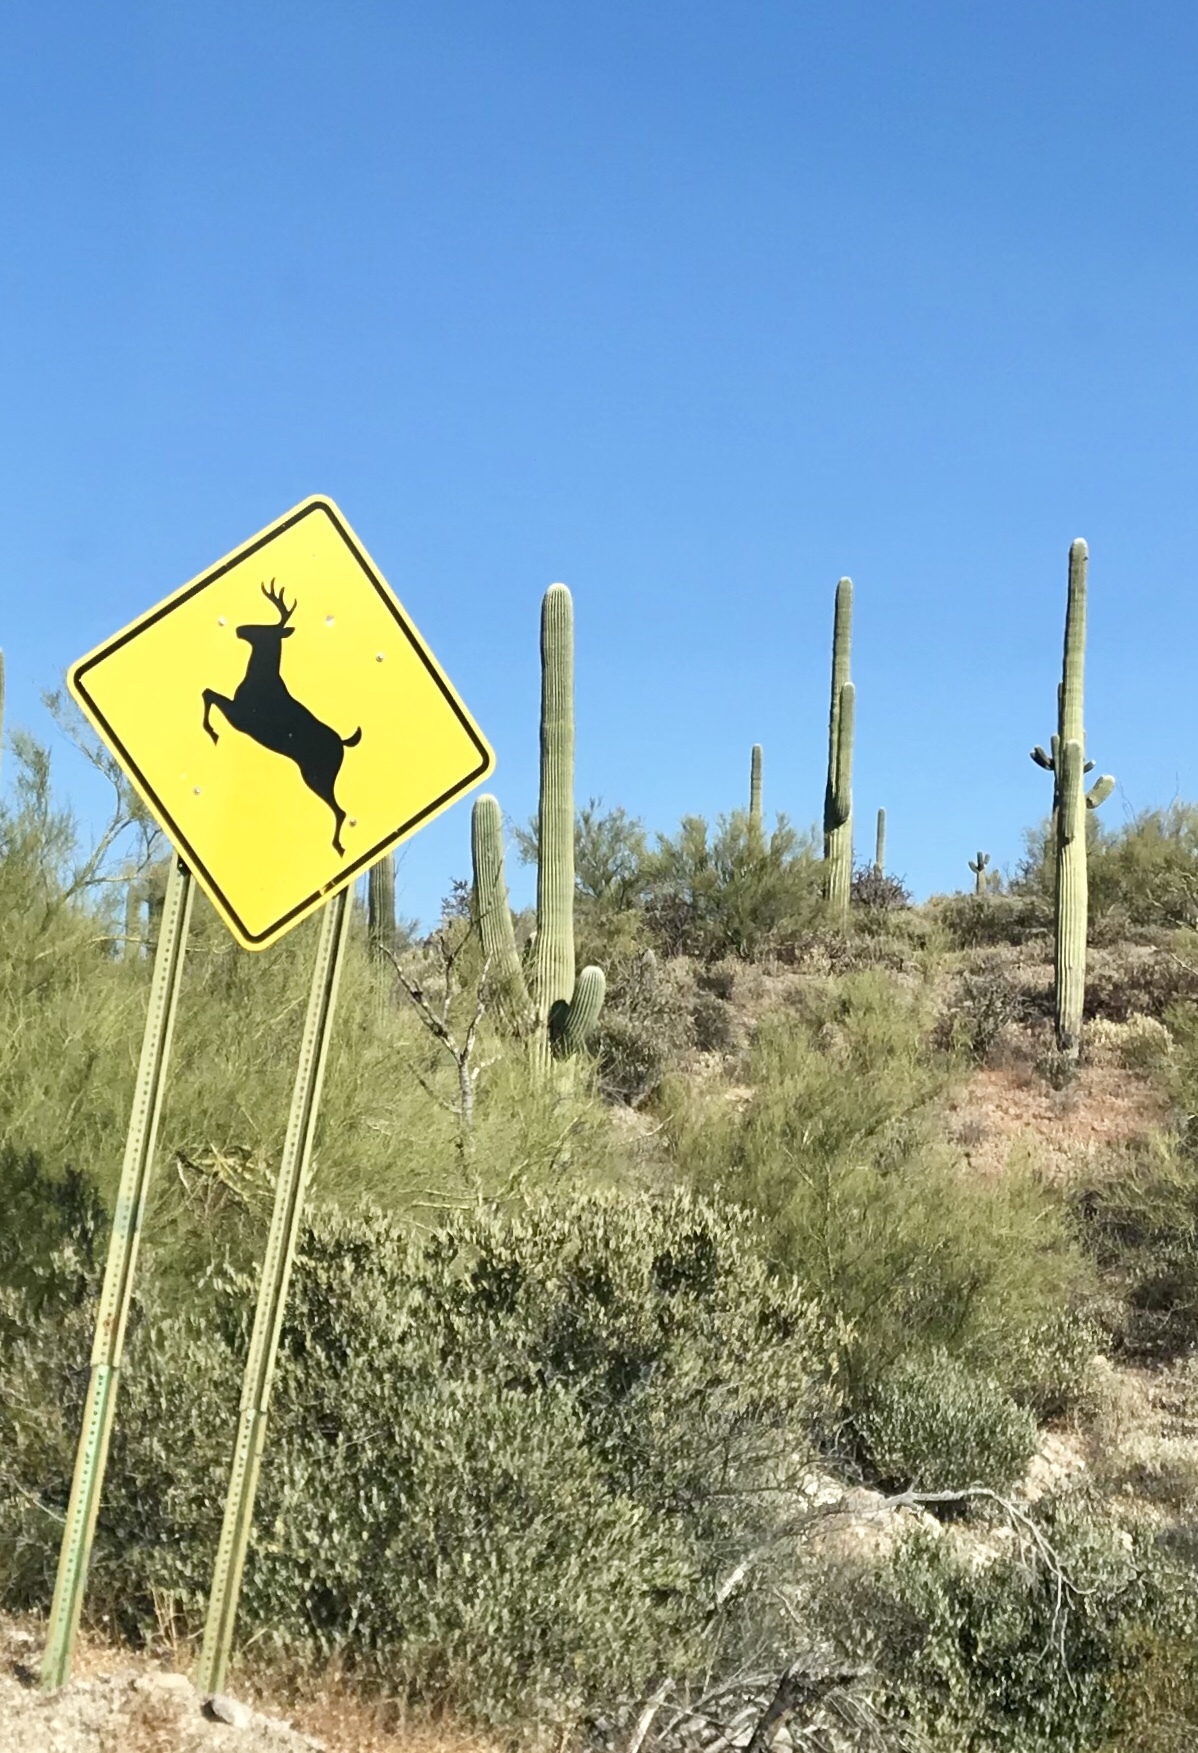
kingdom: Plantae
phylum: Tracheophyta
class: Magnoliopsida
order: Caryophyllales
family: Cactaceae
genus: Carnegiea
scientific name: Carnegiea gigantea
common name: Saguaro
